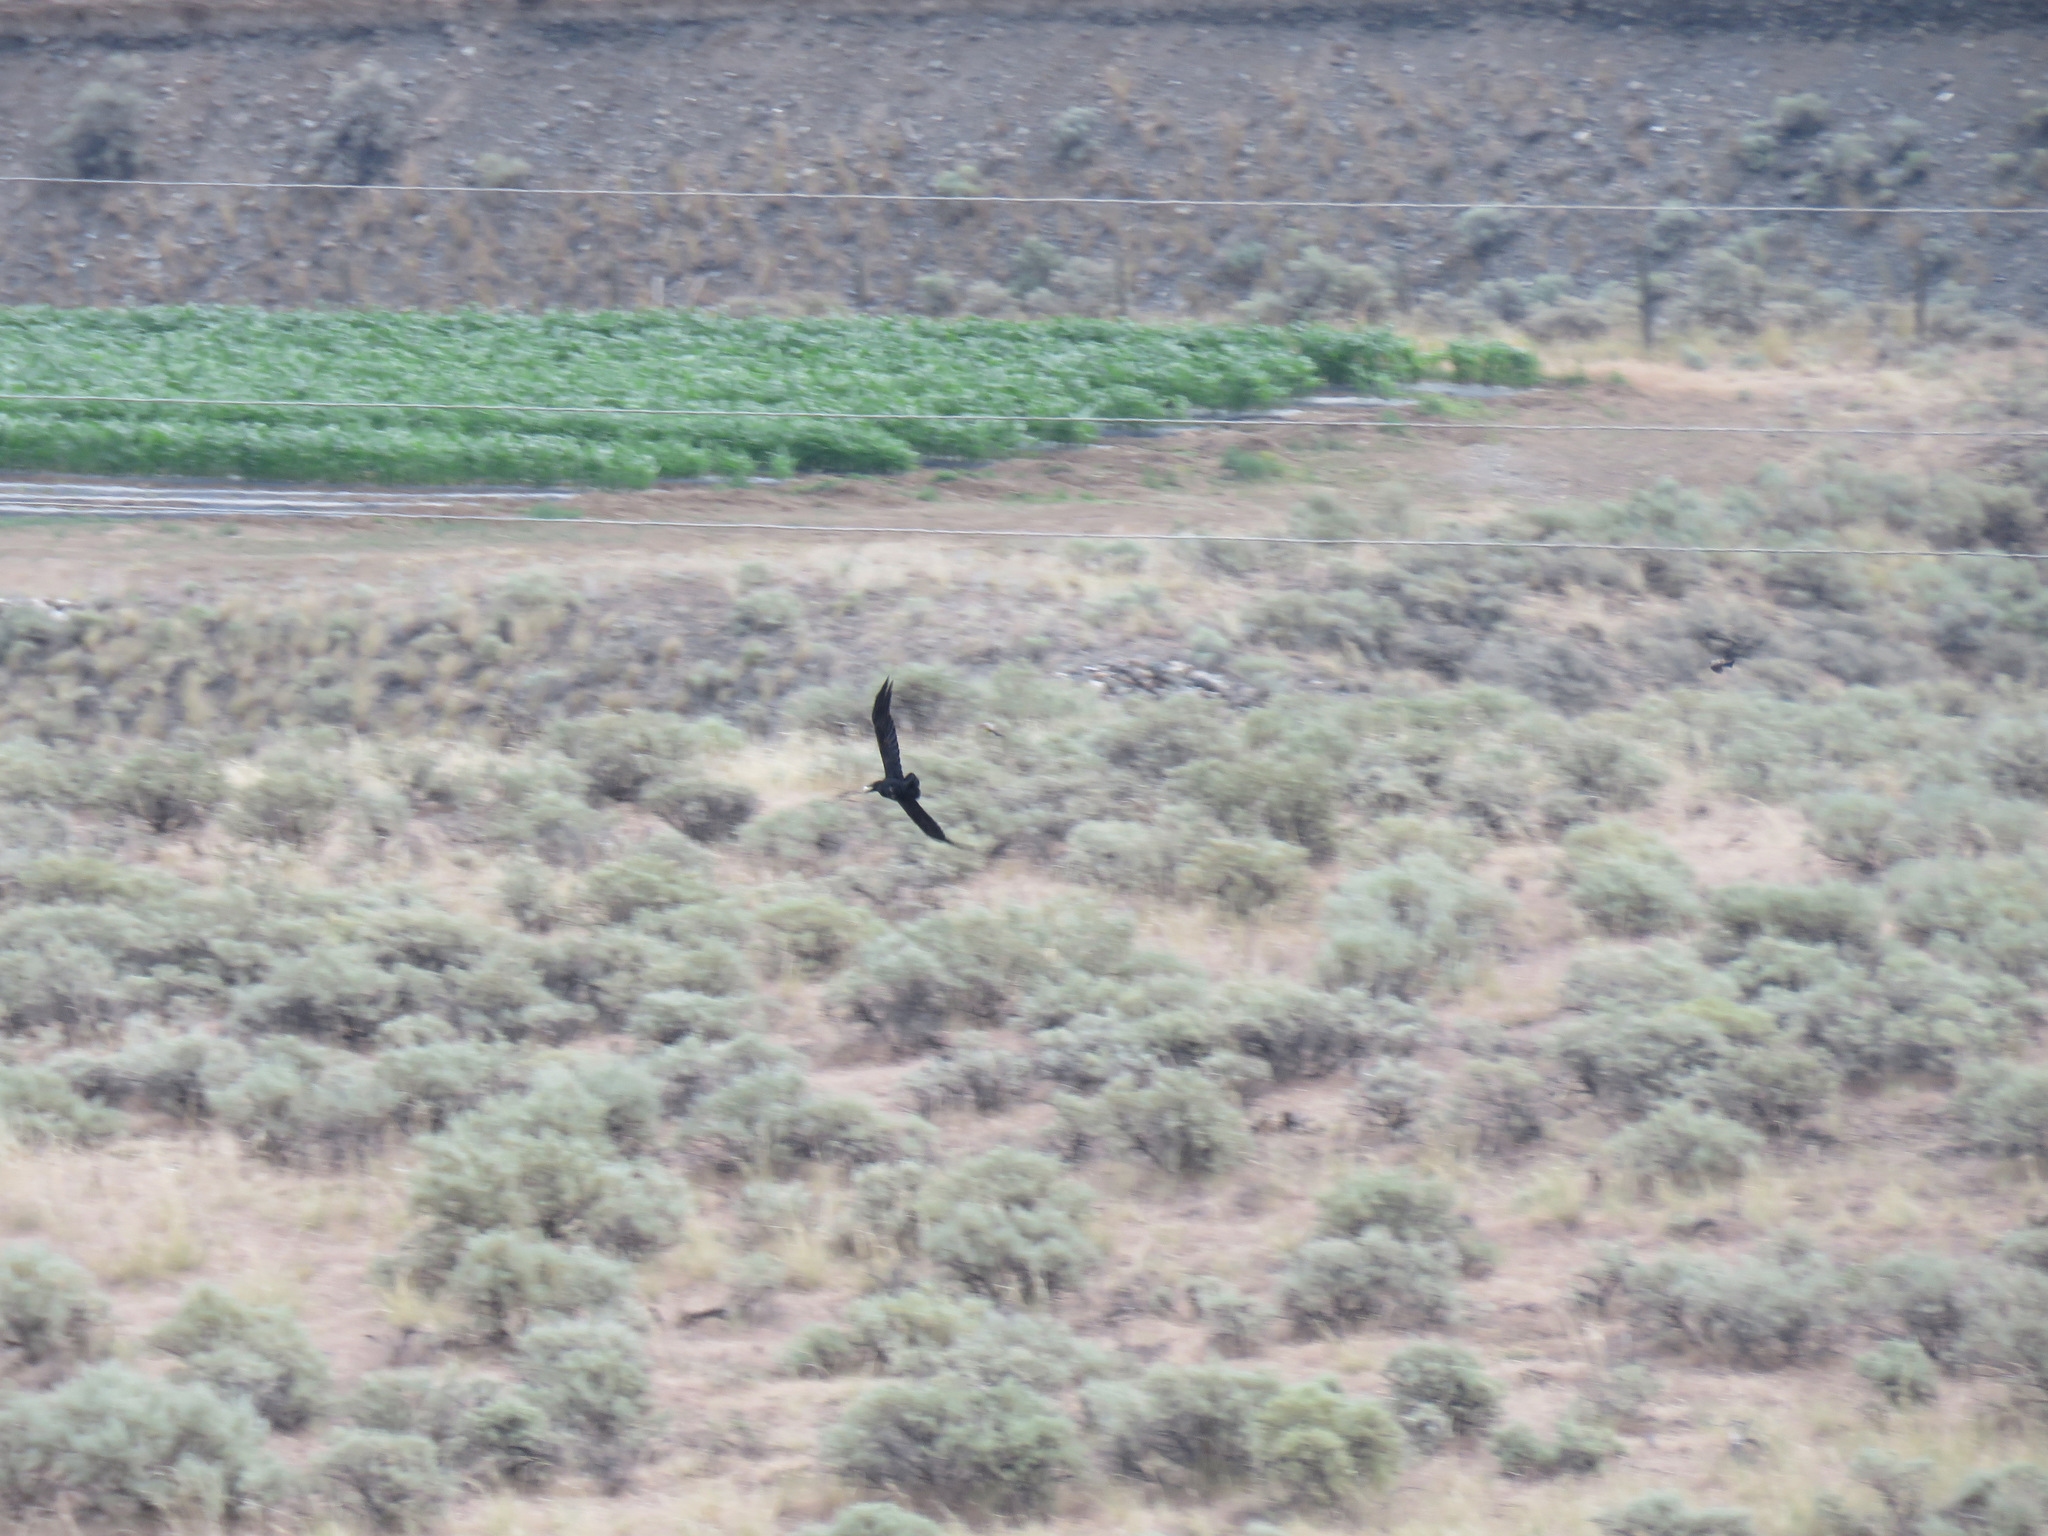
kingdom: Animalia
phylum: Chordata
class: Aves
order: Passeriformes
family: Corvidae
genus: Corvus
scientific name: Corvus corax
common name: Common raven
